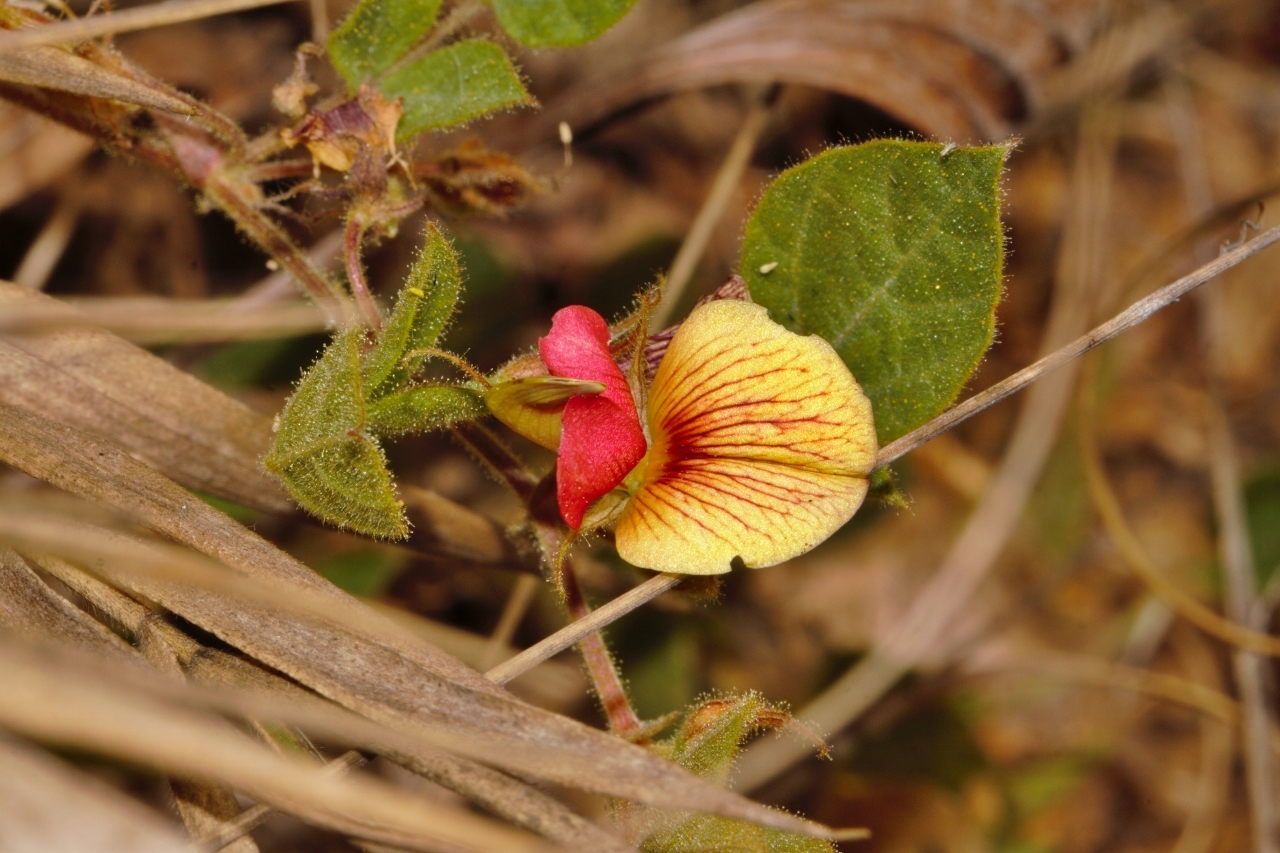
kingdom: Plantae
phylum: Tracheophyta
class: Magnoliopsida
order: Fabales
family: Fabaceae
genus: Rhynchosia
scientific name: Rhynchosia monophylla
